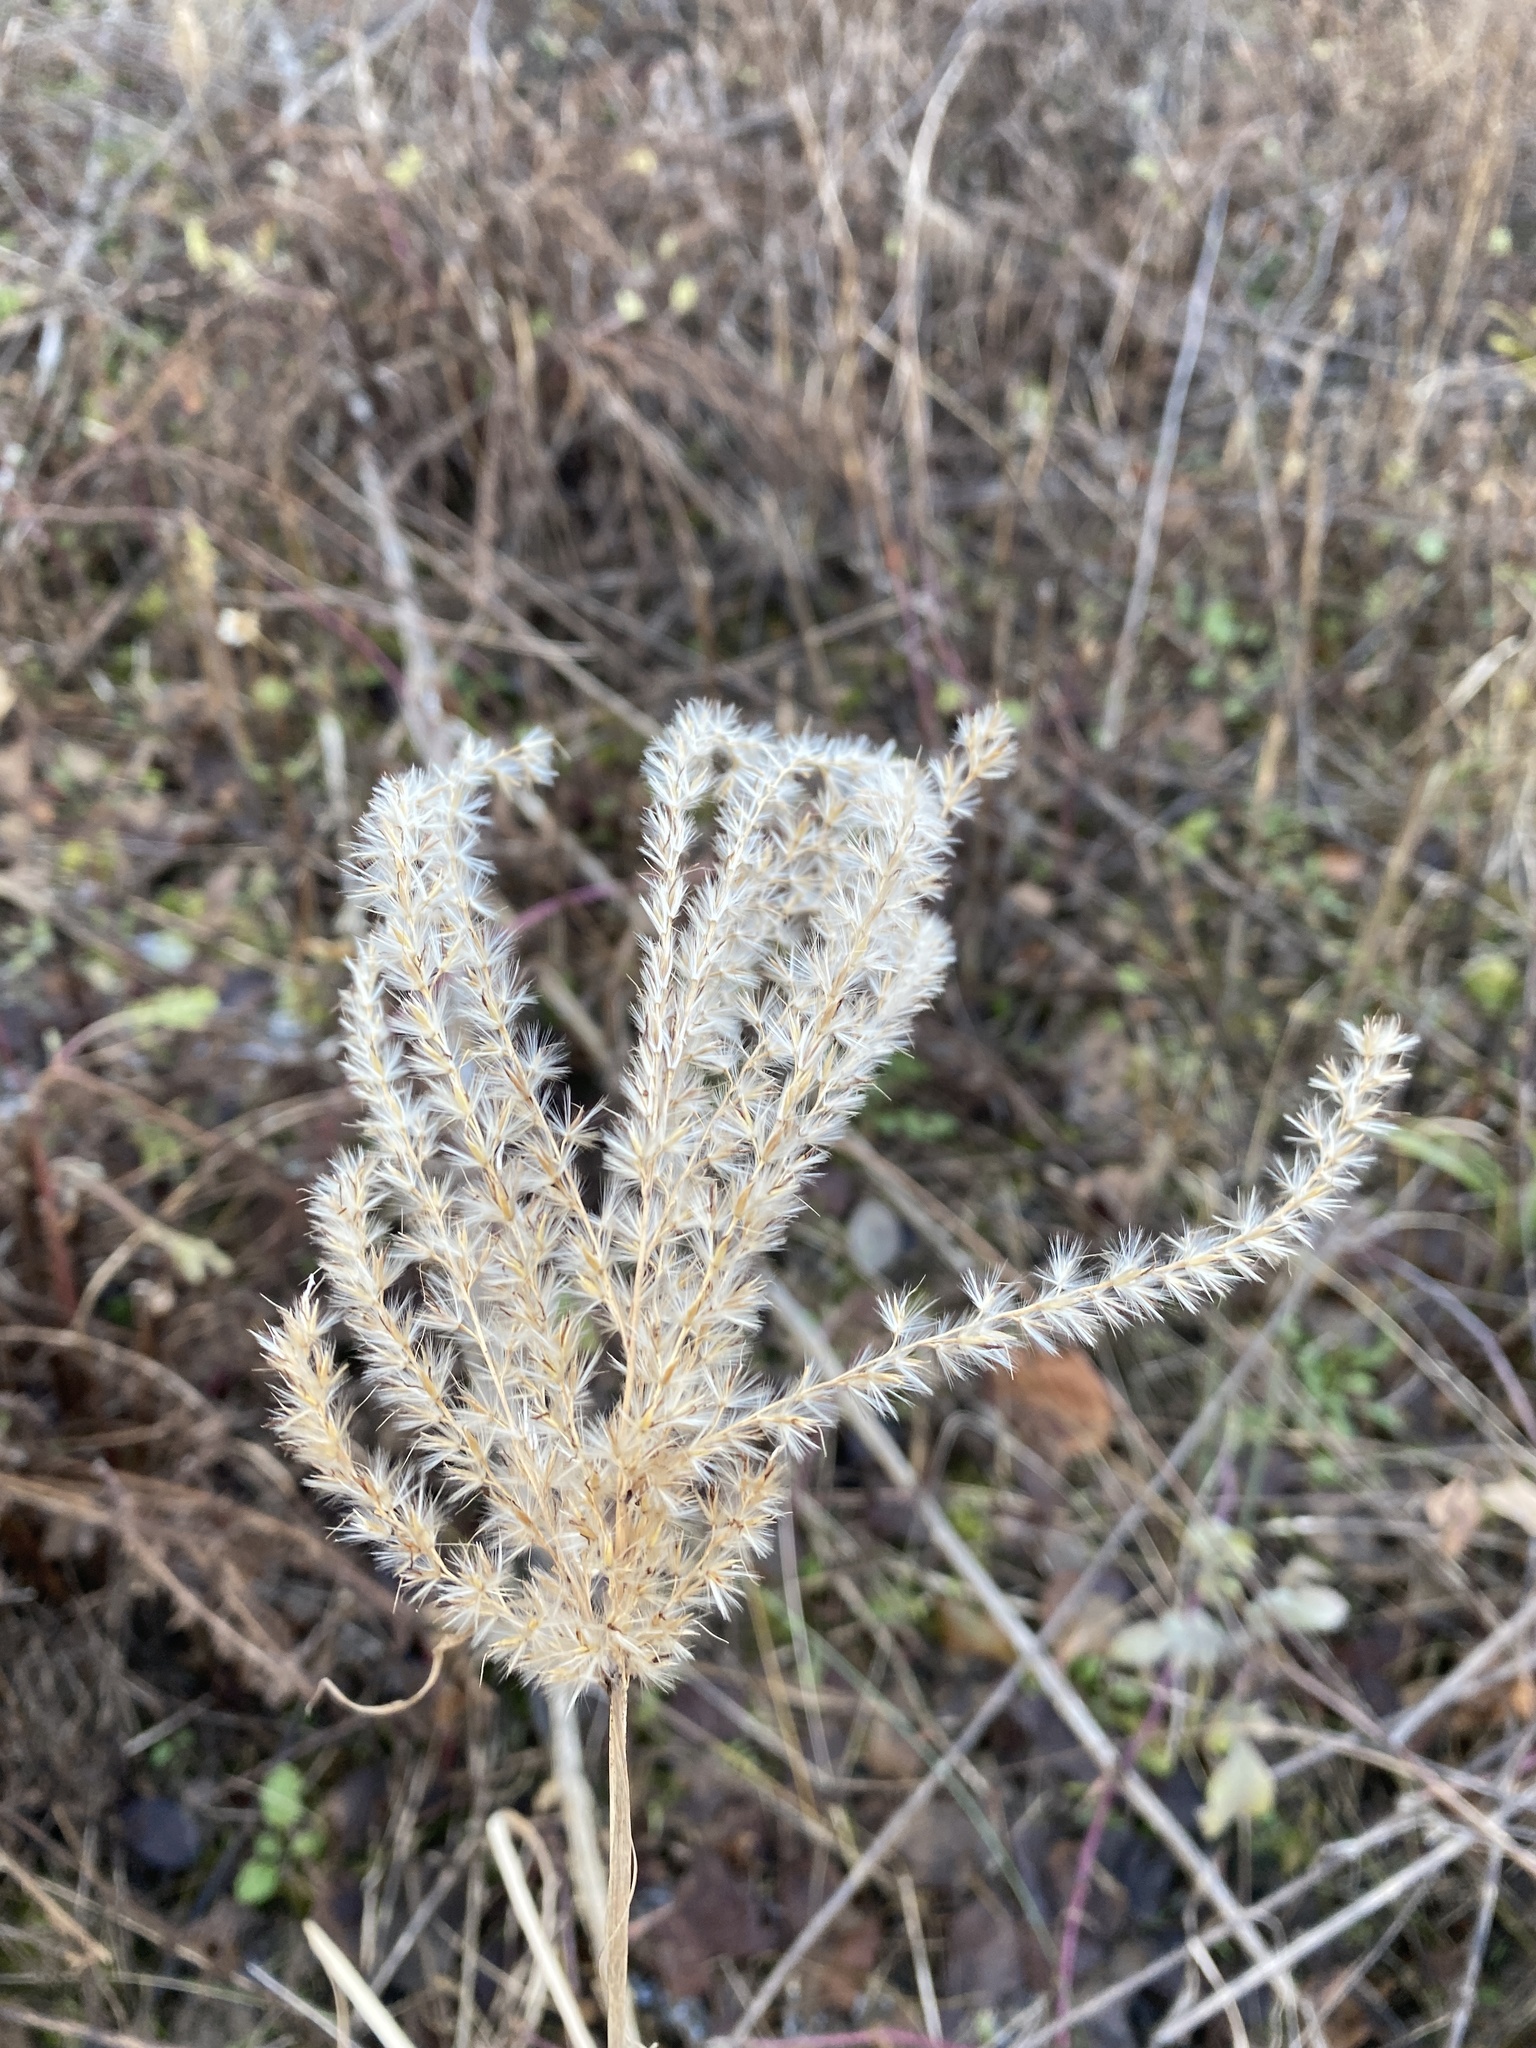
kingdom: Plantae
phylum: Tracheophyta
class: Magnoliopsida
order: Rosales
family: Rosaceae
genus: Aruncus
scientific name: Aruncus dioicus
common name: Buck's-beard
